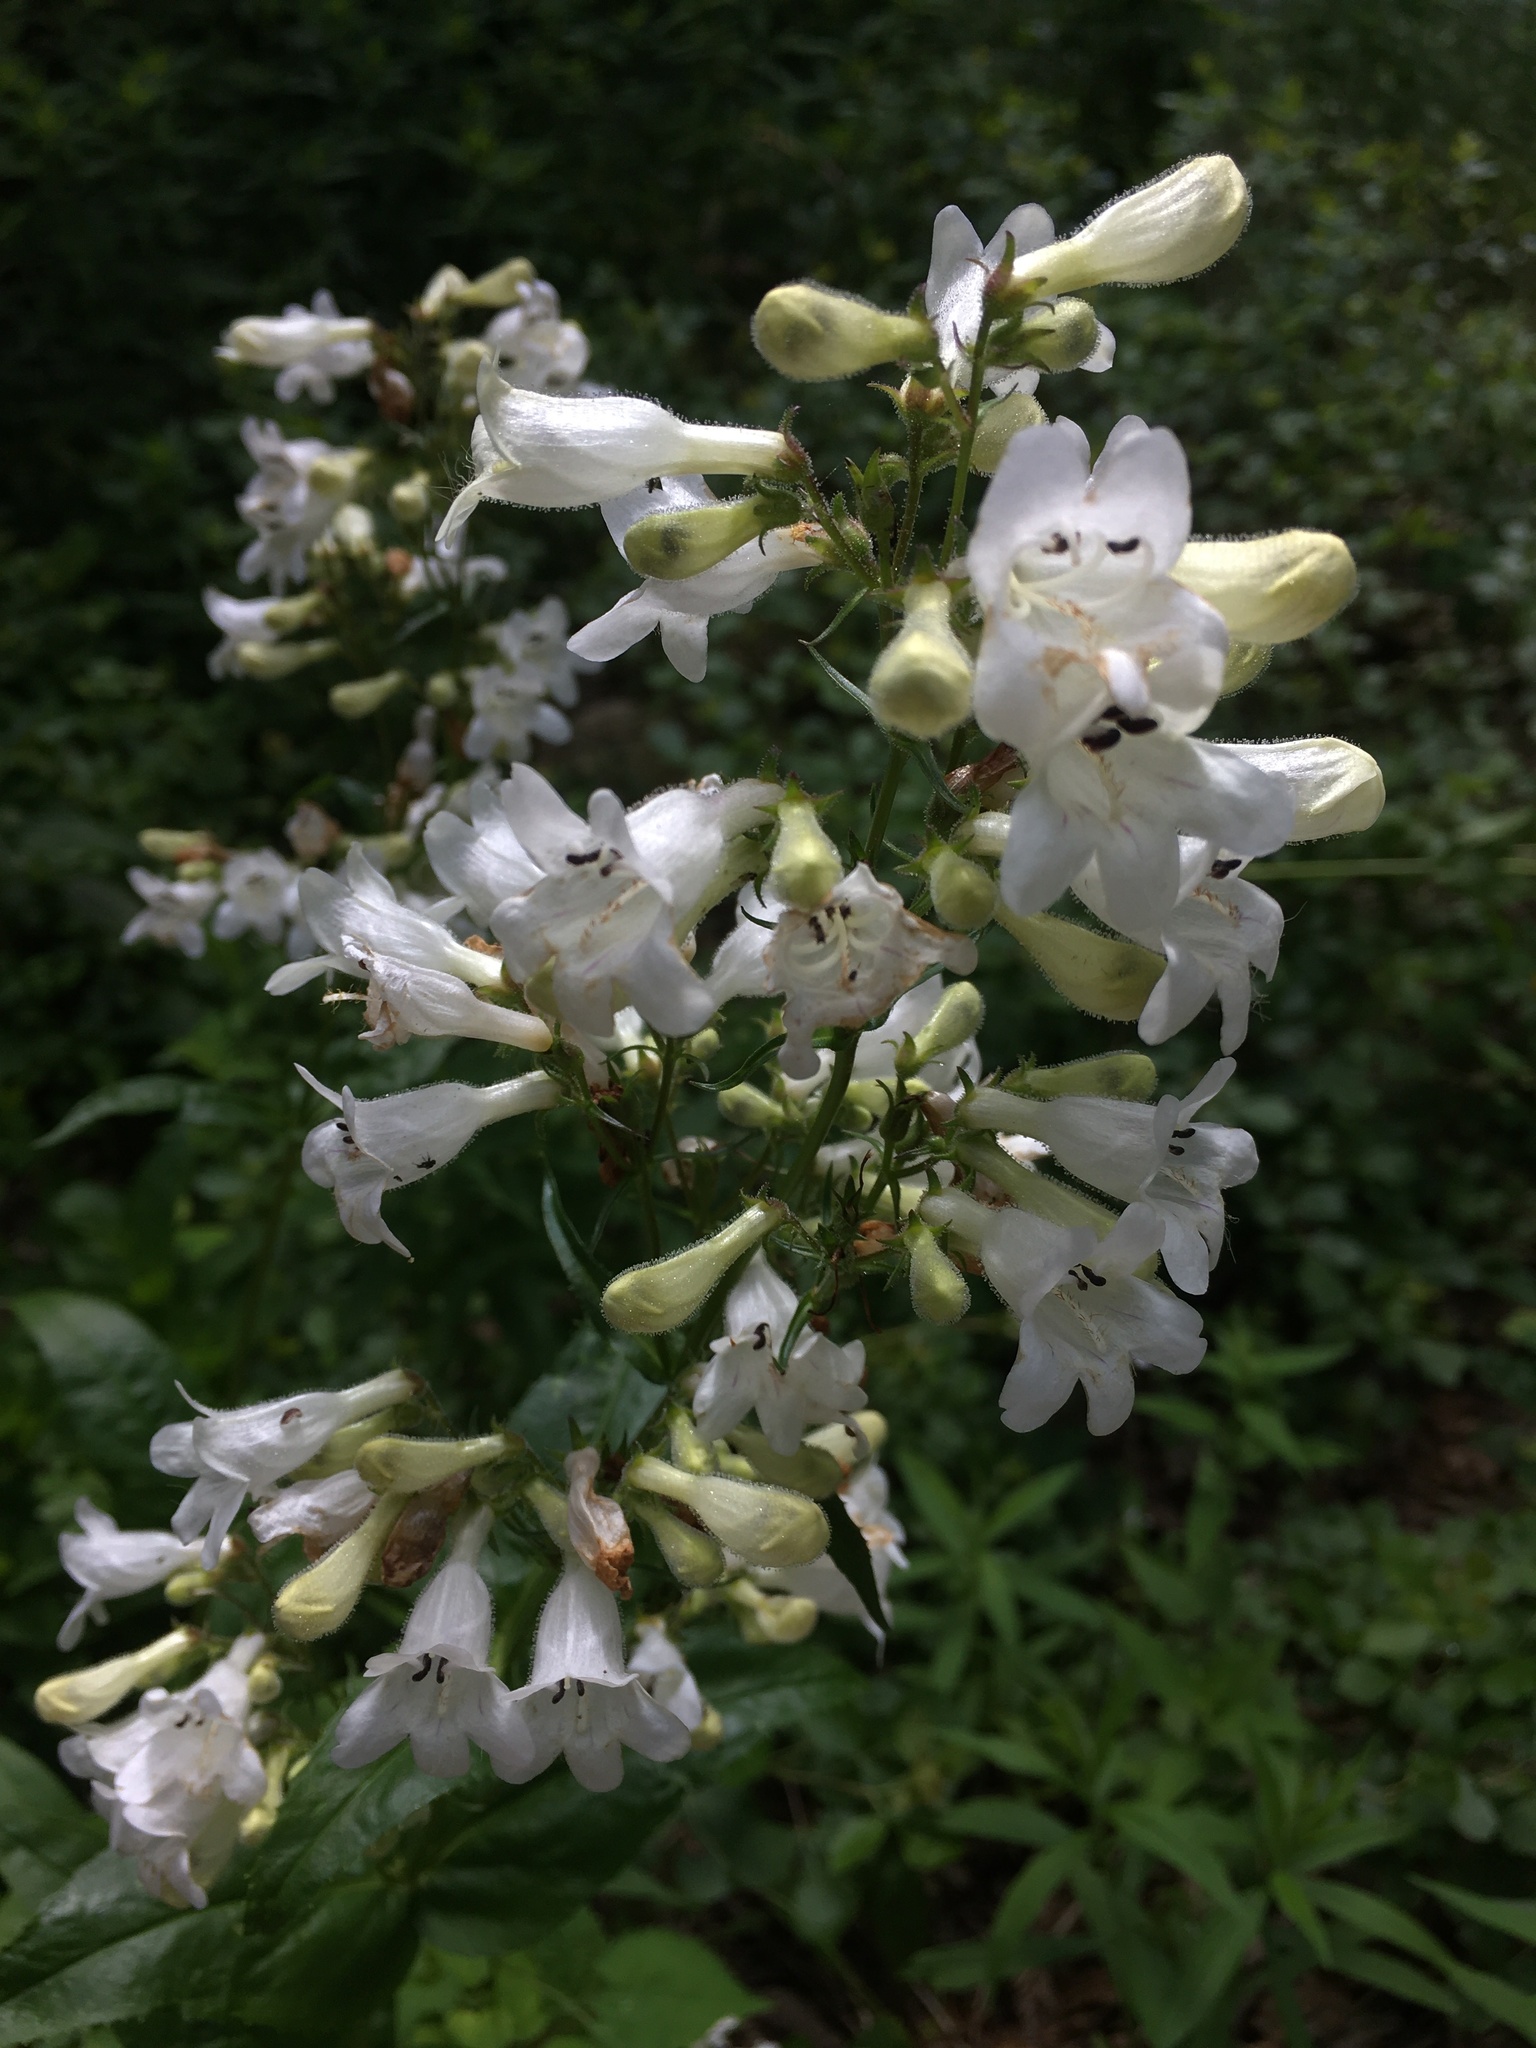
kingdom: Plantae
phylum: Tracheophyta
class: Magnoliopsida
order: Lamiales
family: Plantaginaceae
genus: Penstemon
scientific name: Penstemon digitalis
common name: Foxglove beardtongue
